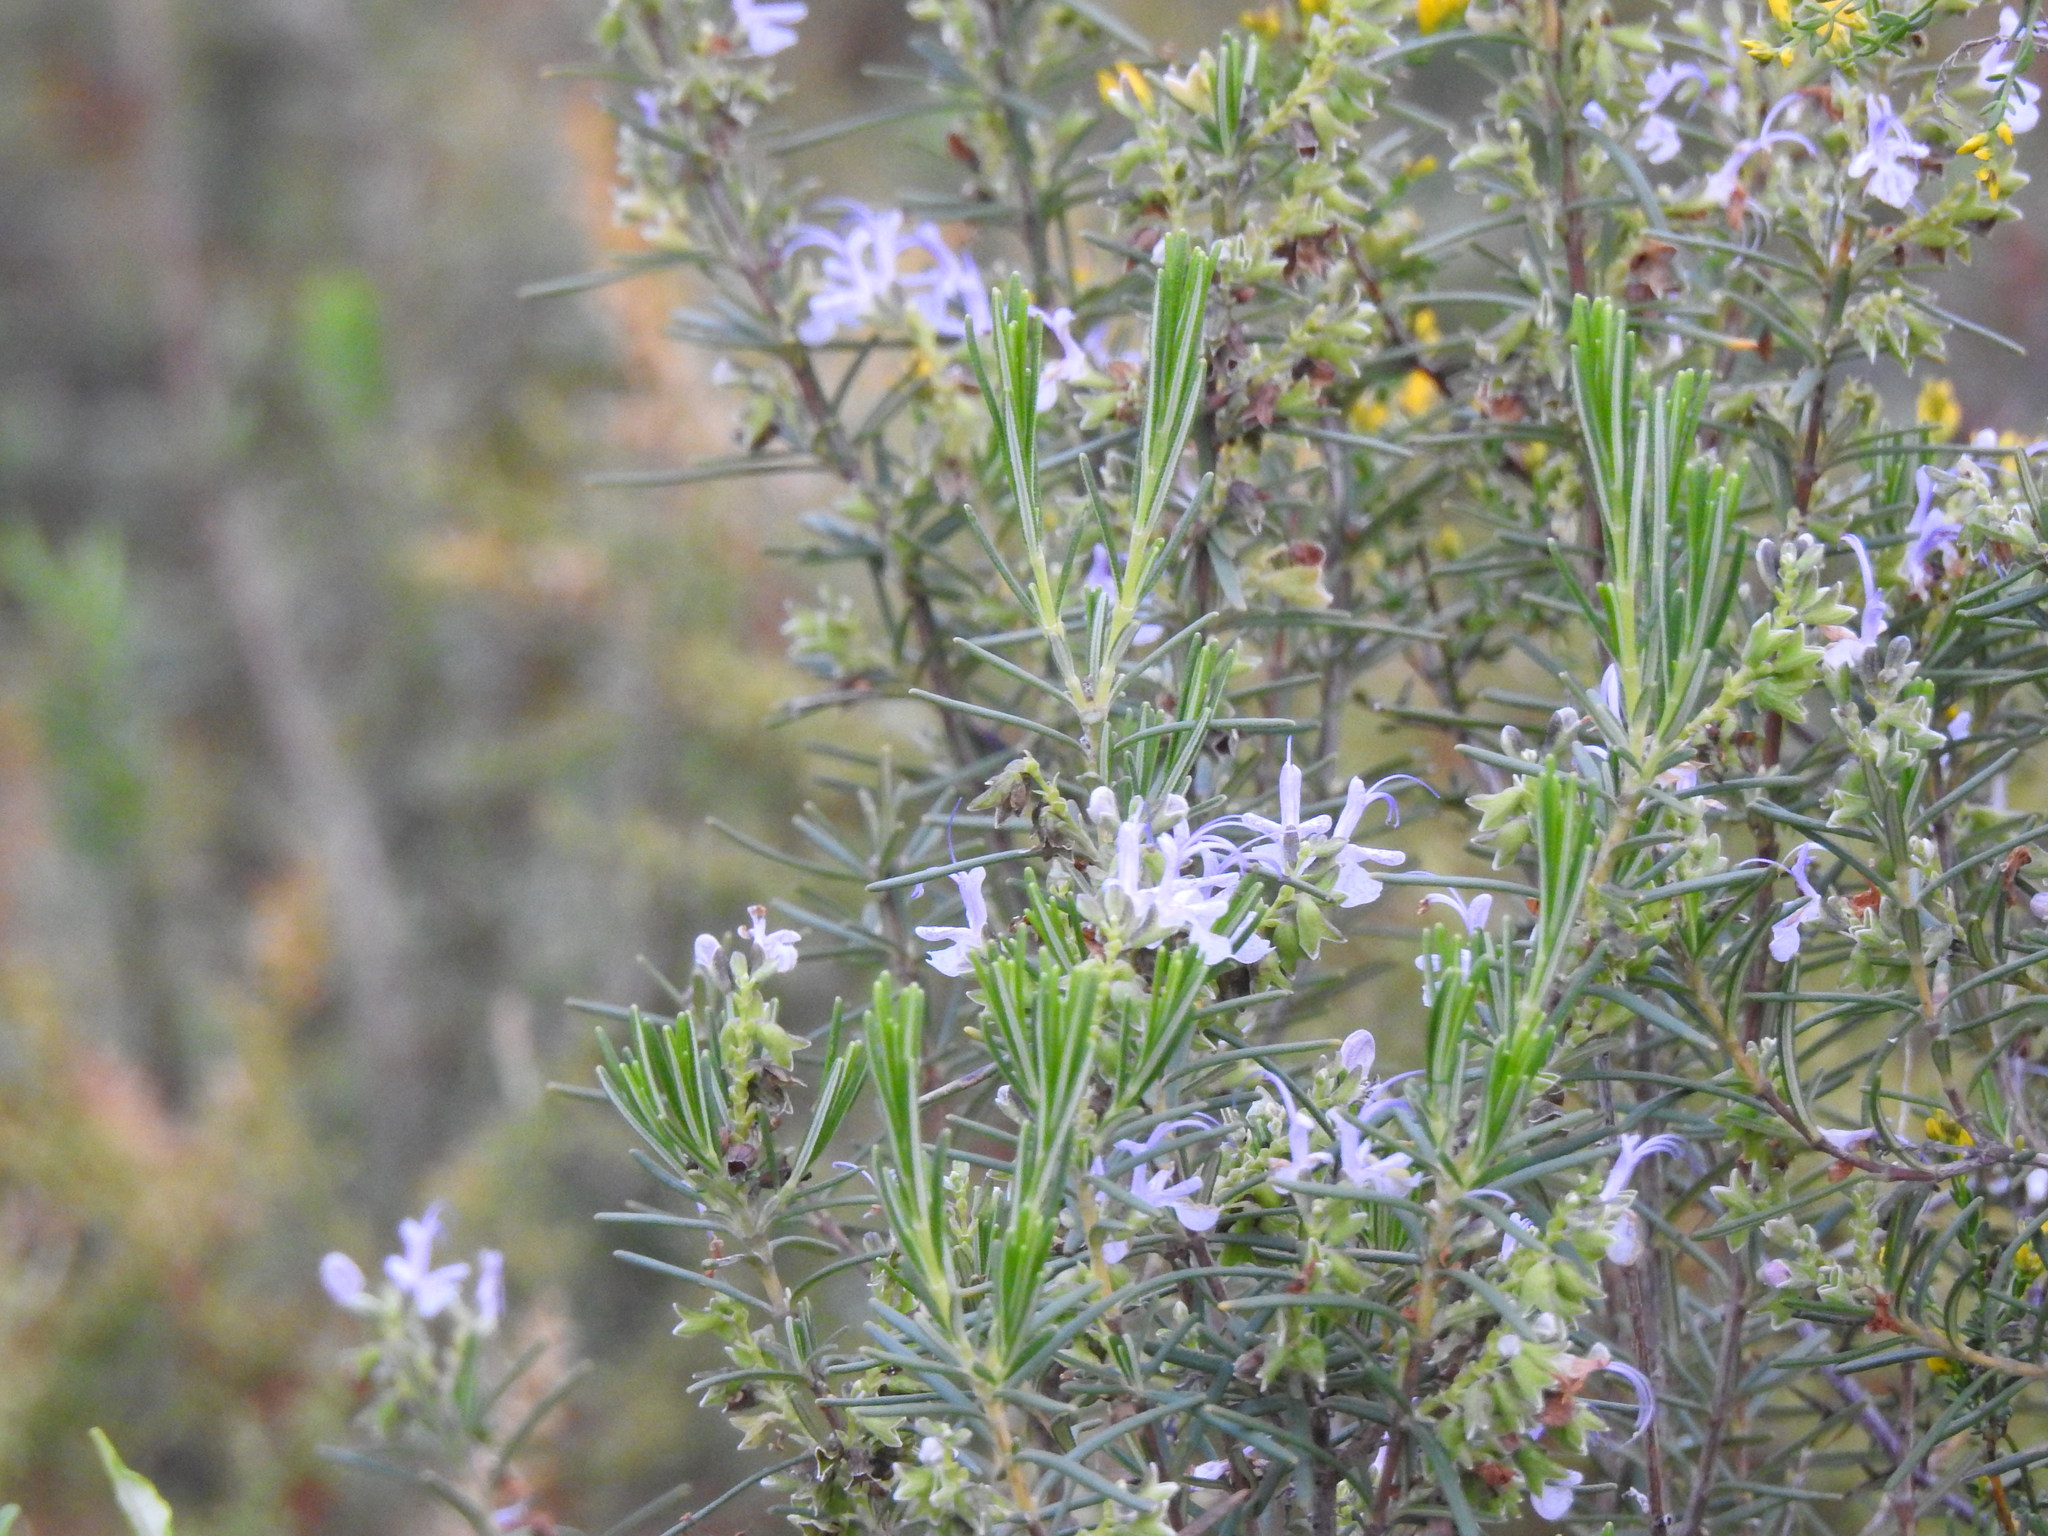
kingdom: Plantae
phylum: Tracheophyta
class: Magnoliopsida
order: Lamiales
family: Lamiaceae
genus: Salvia
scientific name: Salvia rosmarinus
